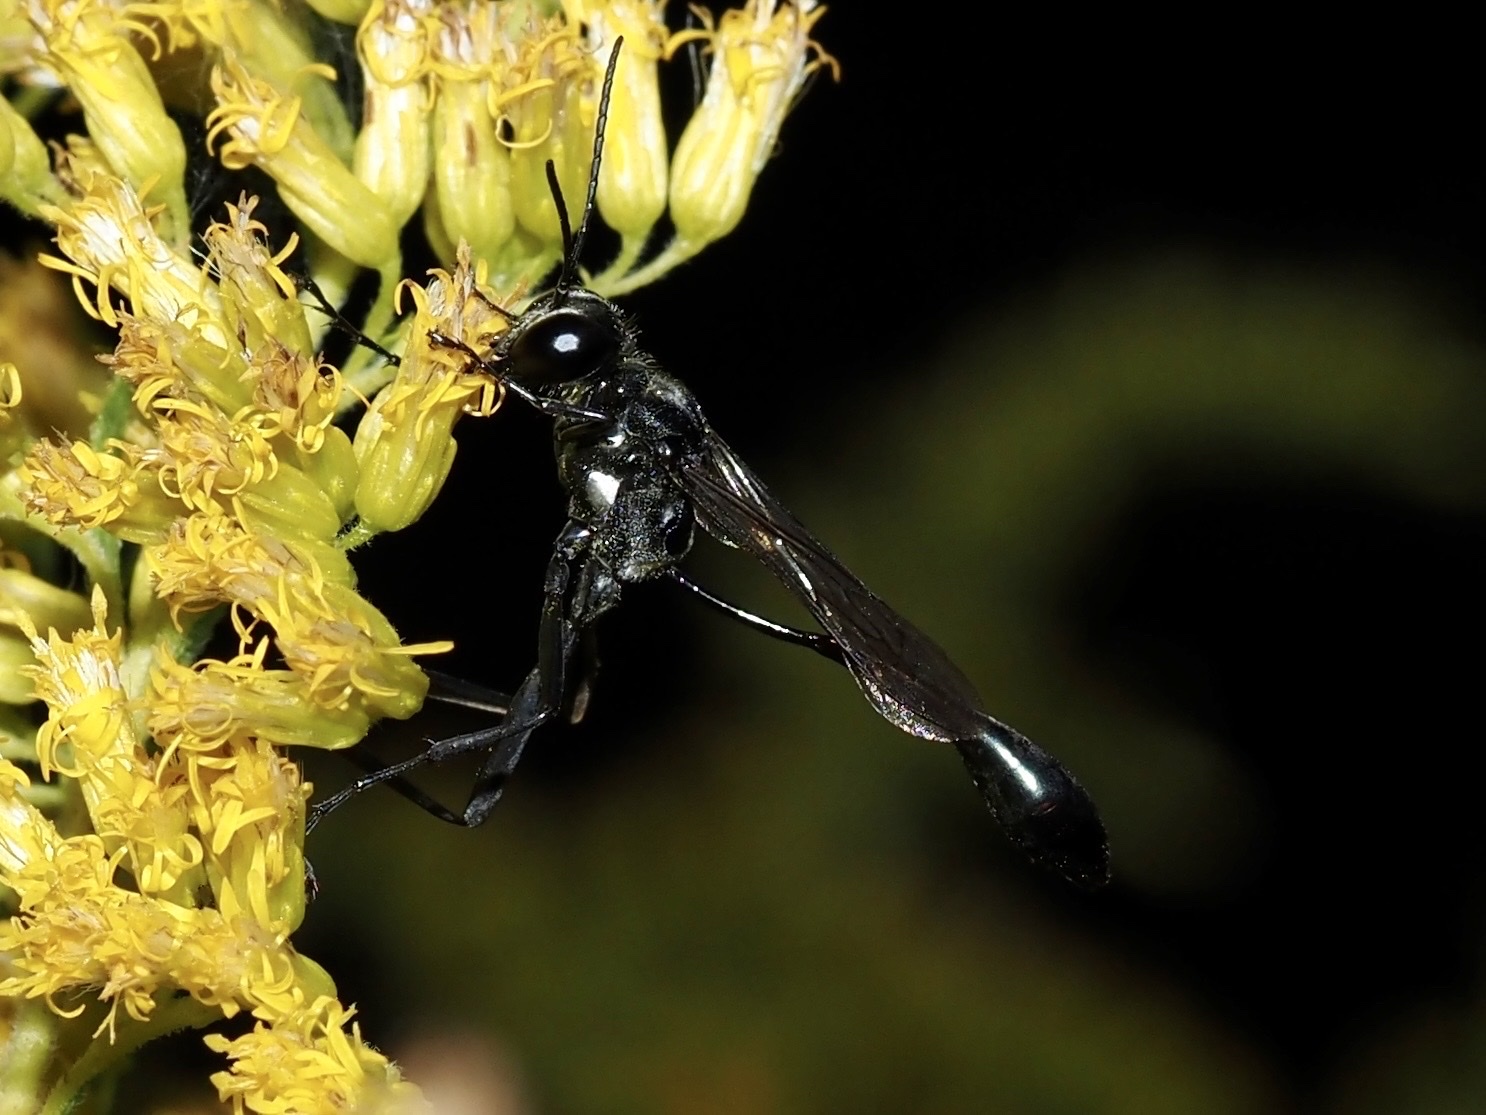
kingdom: Animalia
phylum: Arthropoda
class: Insecta
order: Hymenoptera
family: Sphecidae
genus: Eremnophila
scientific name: Eremnophila aureonotata
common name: Gold-marked thread-waisted wasp
